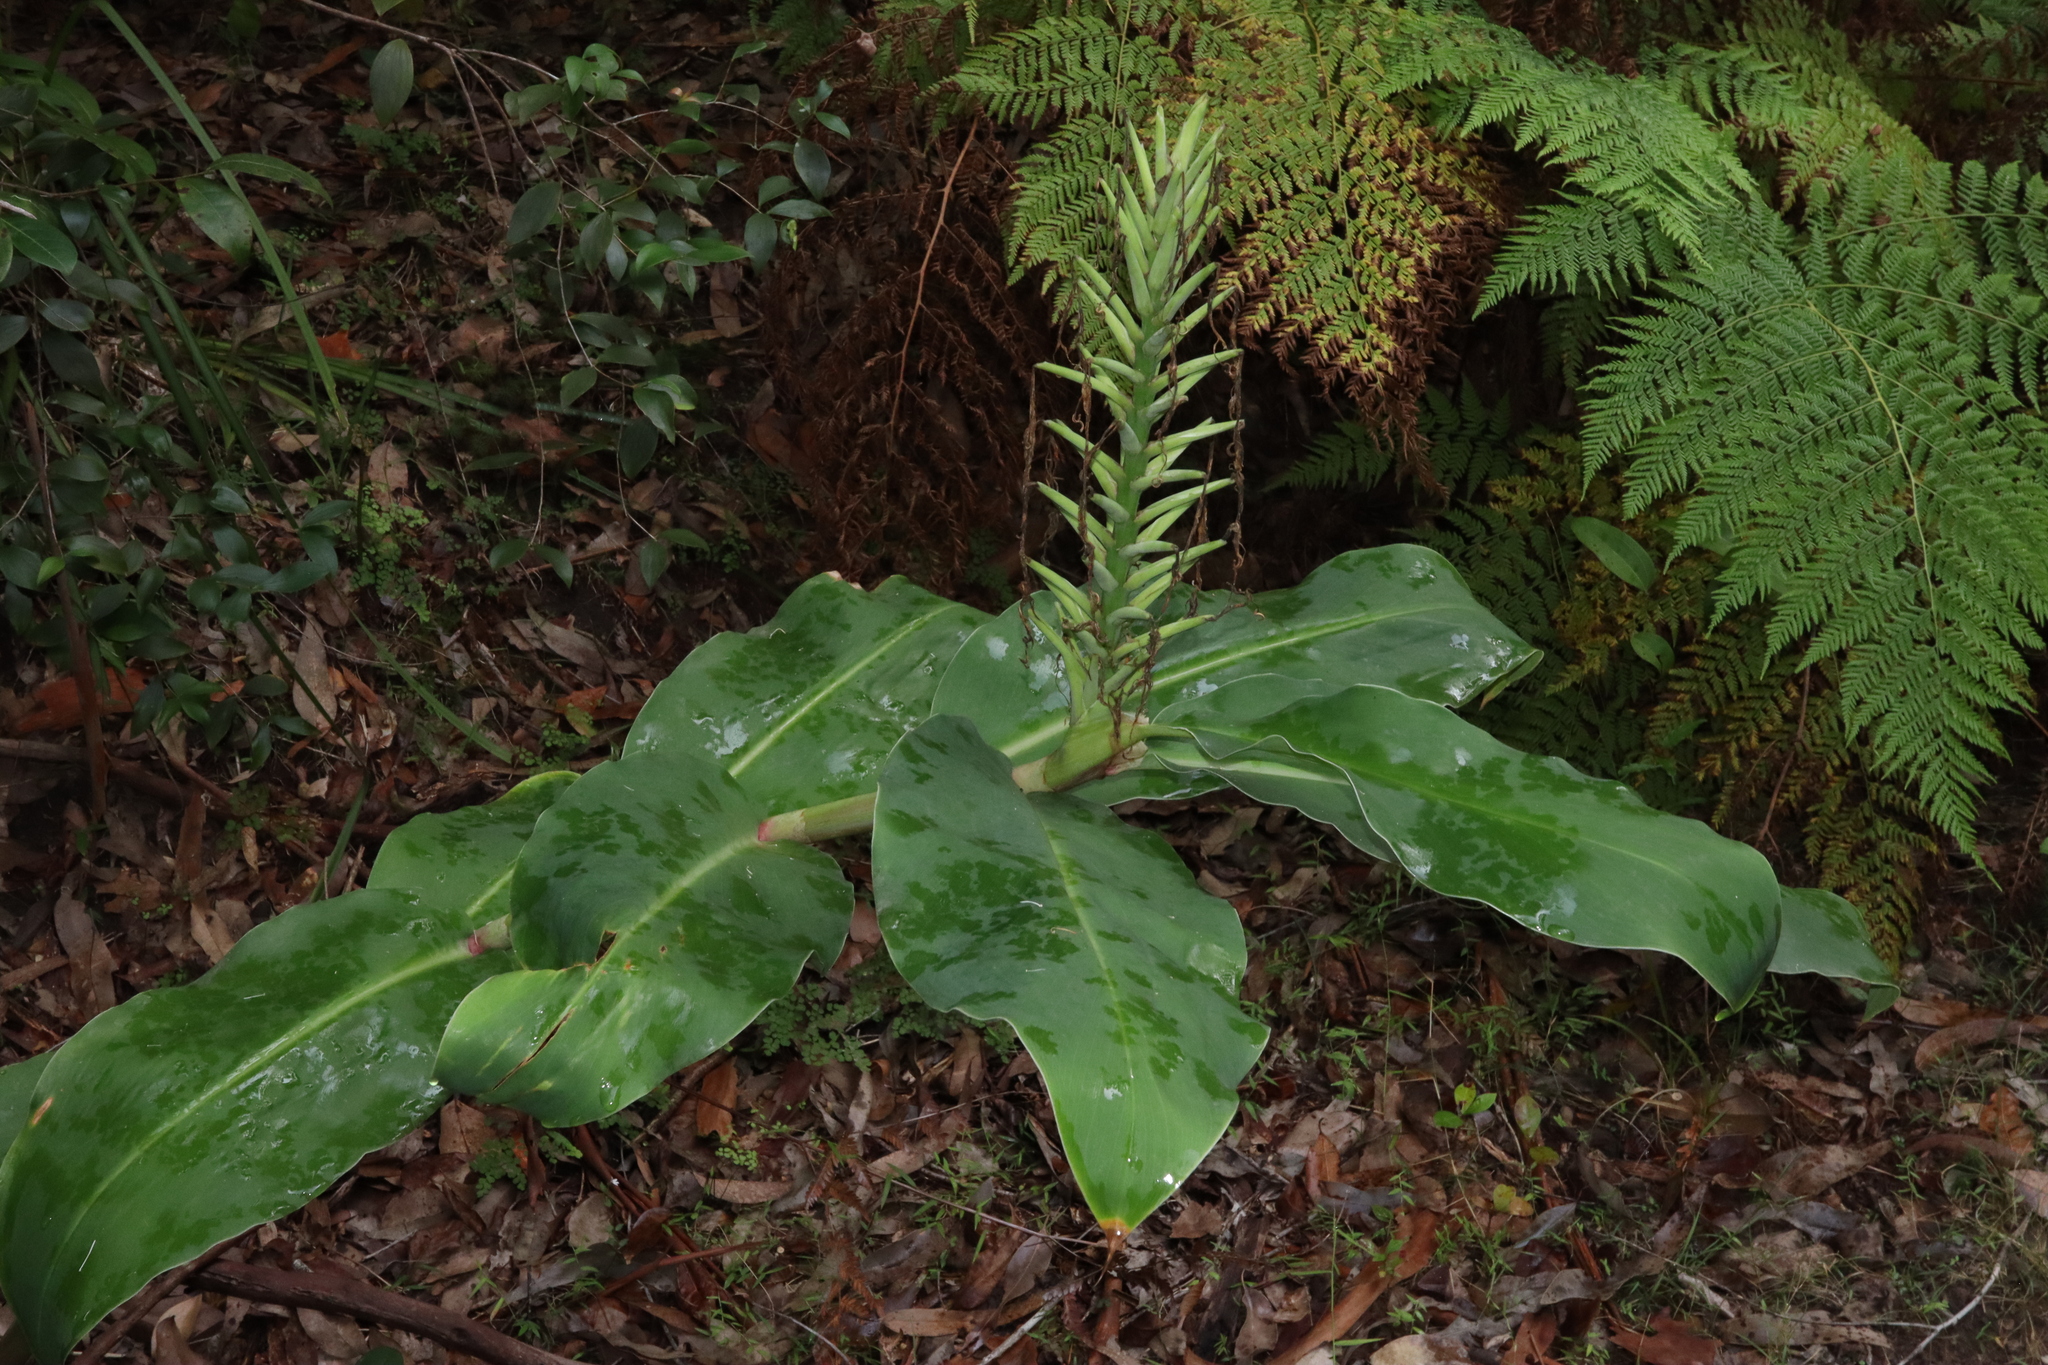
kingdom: Plantae
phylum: Tracheophyta
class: Liliopsida
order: Zingiberales
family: Zingiberaceae
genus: Hedychium
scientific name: Hedychium gardnerianum
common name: Himalayan ginger
